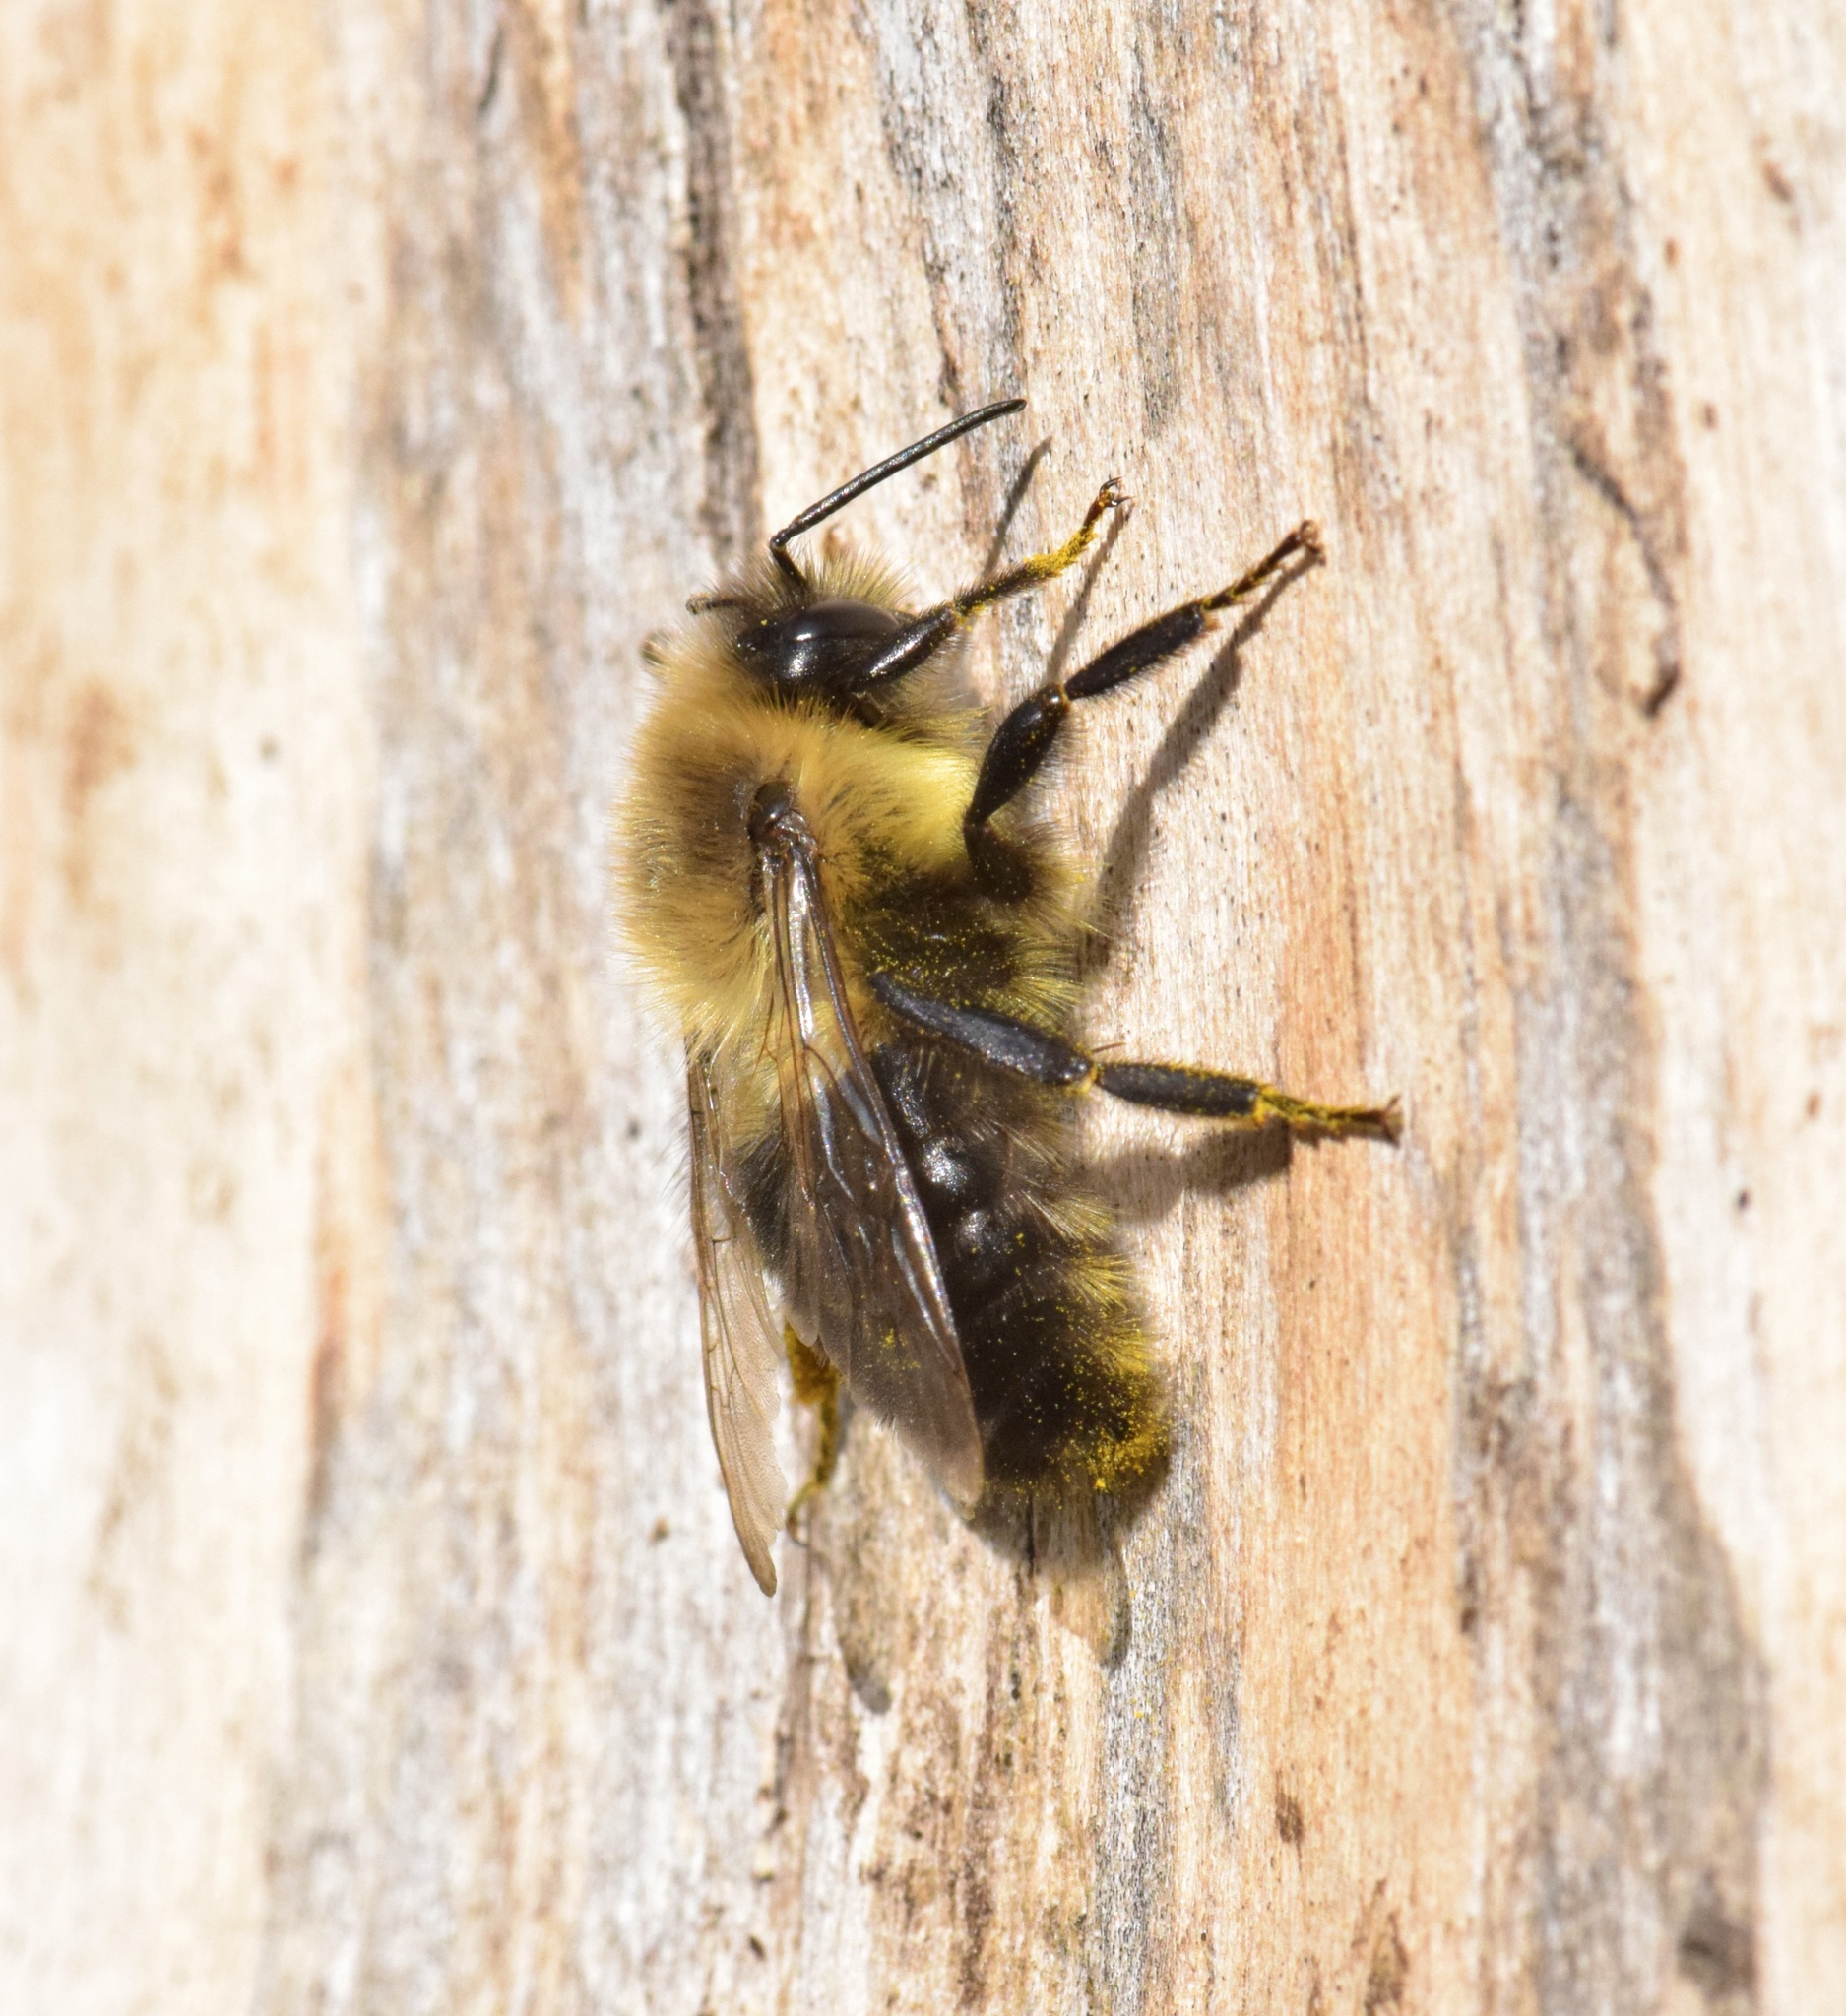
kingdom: Animalia
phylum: Arthropoda
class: Insecta
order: Hymenoptera
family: Apidae
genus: Bombus
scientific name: Bombus impatiens
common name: Common eastern bumble bee
